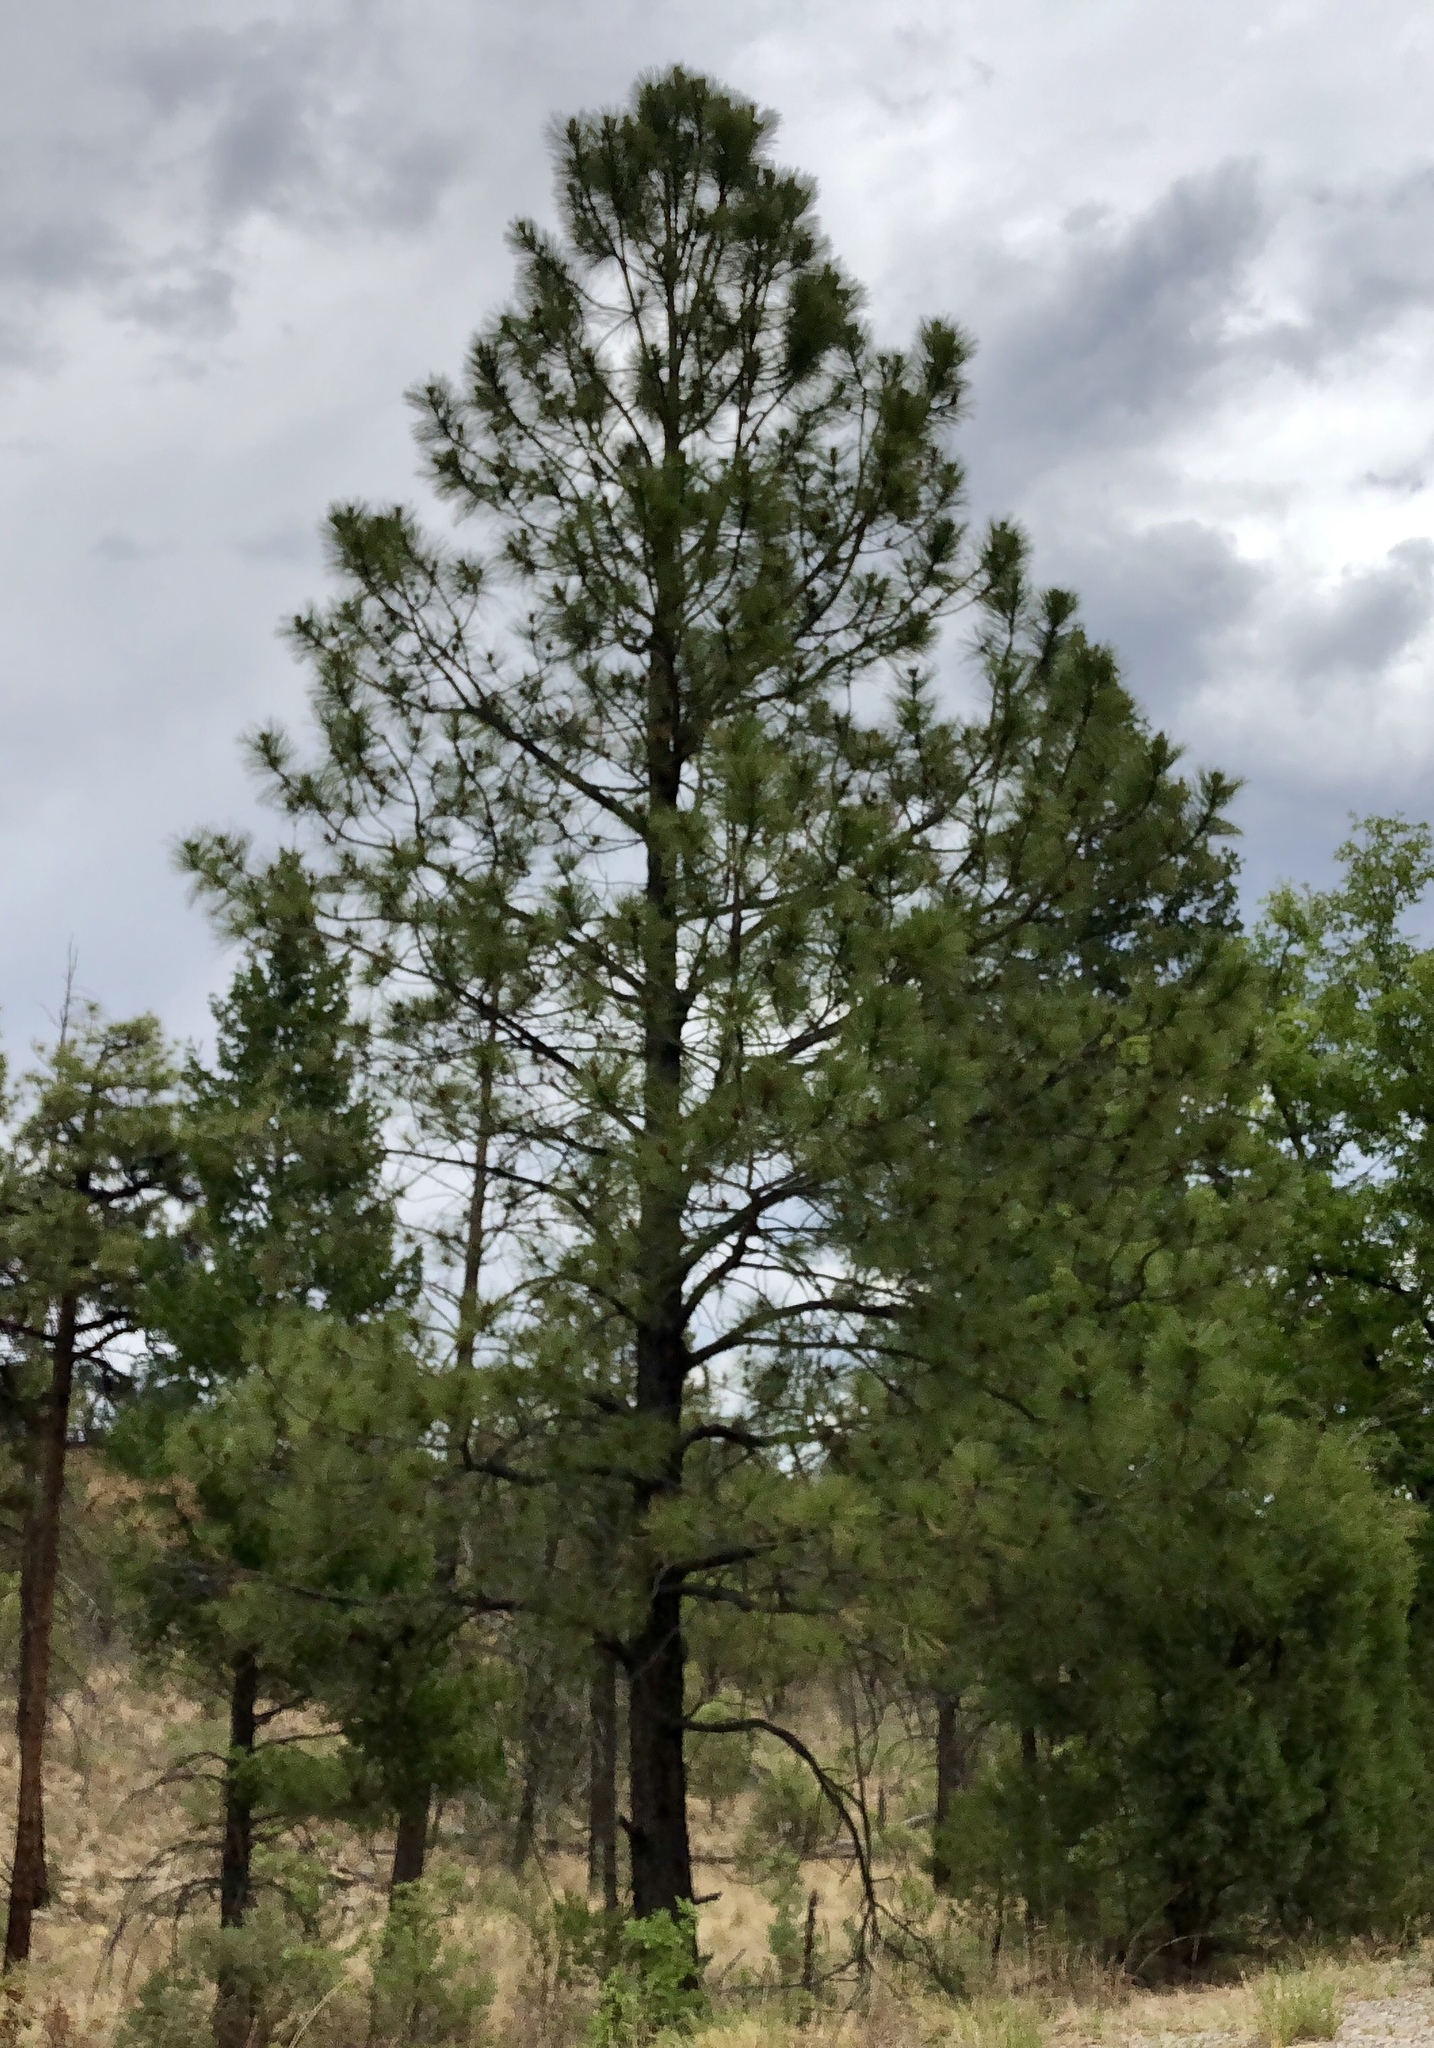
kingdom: Plantae
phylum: Tracheophyta
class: Pinopsida
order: Pinales
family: Pinaceae
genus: Pinus
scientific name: Pinus ponderosa
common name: Western yellow-pine
